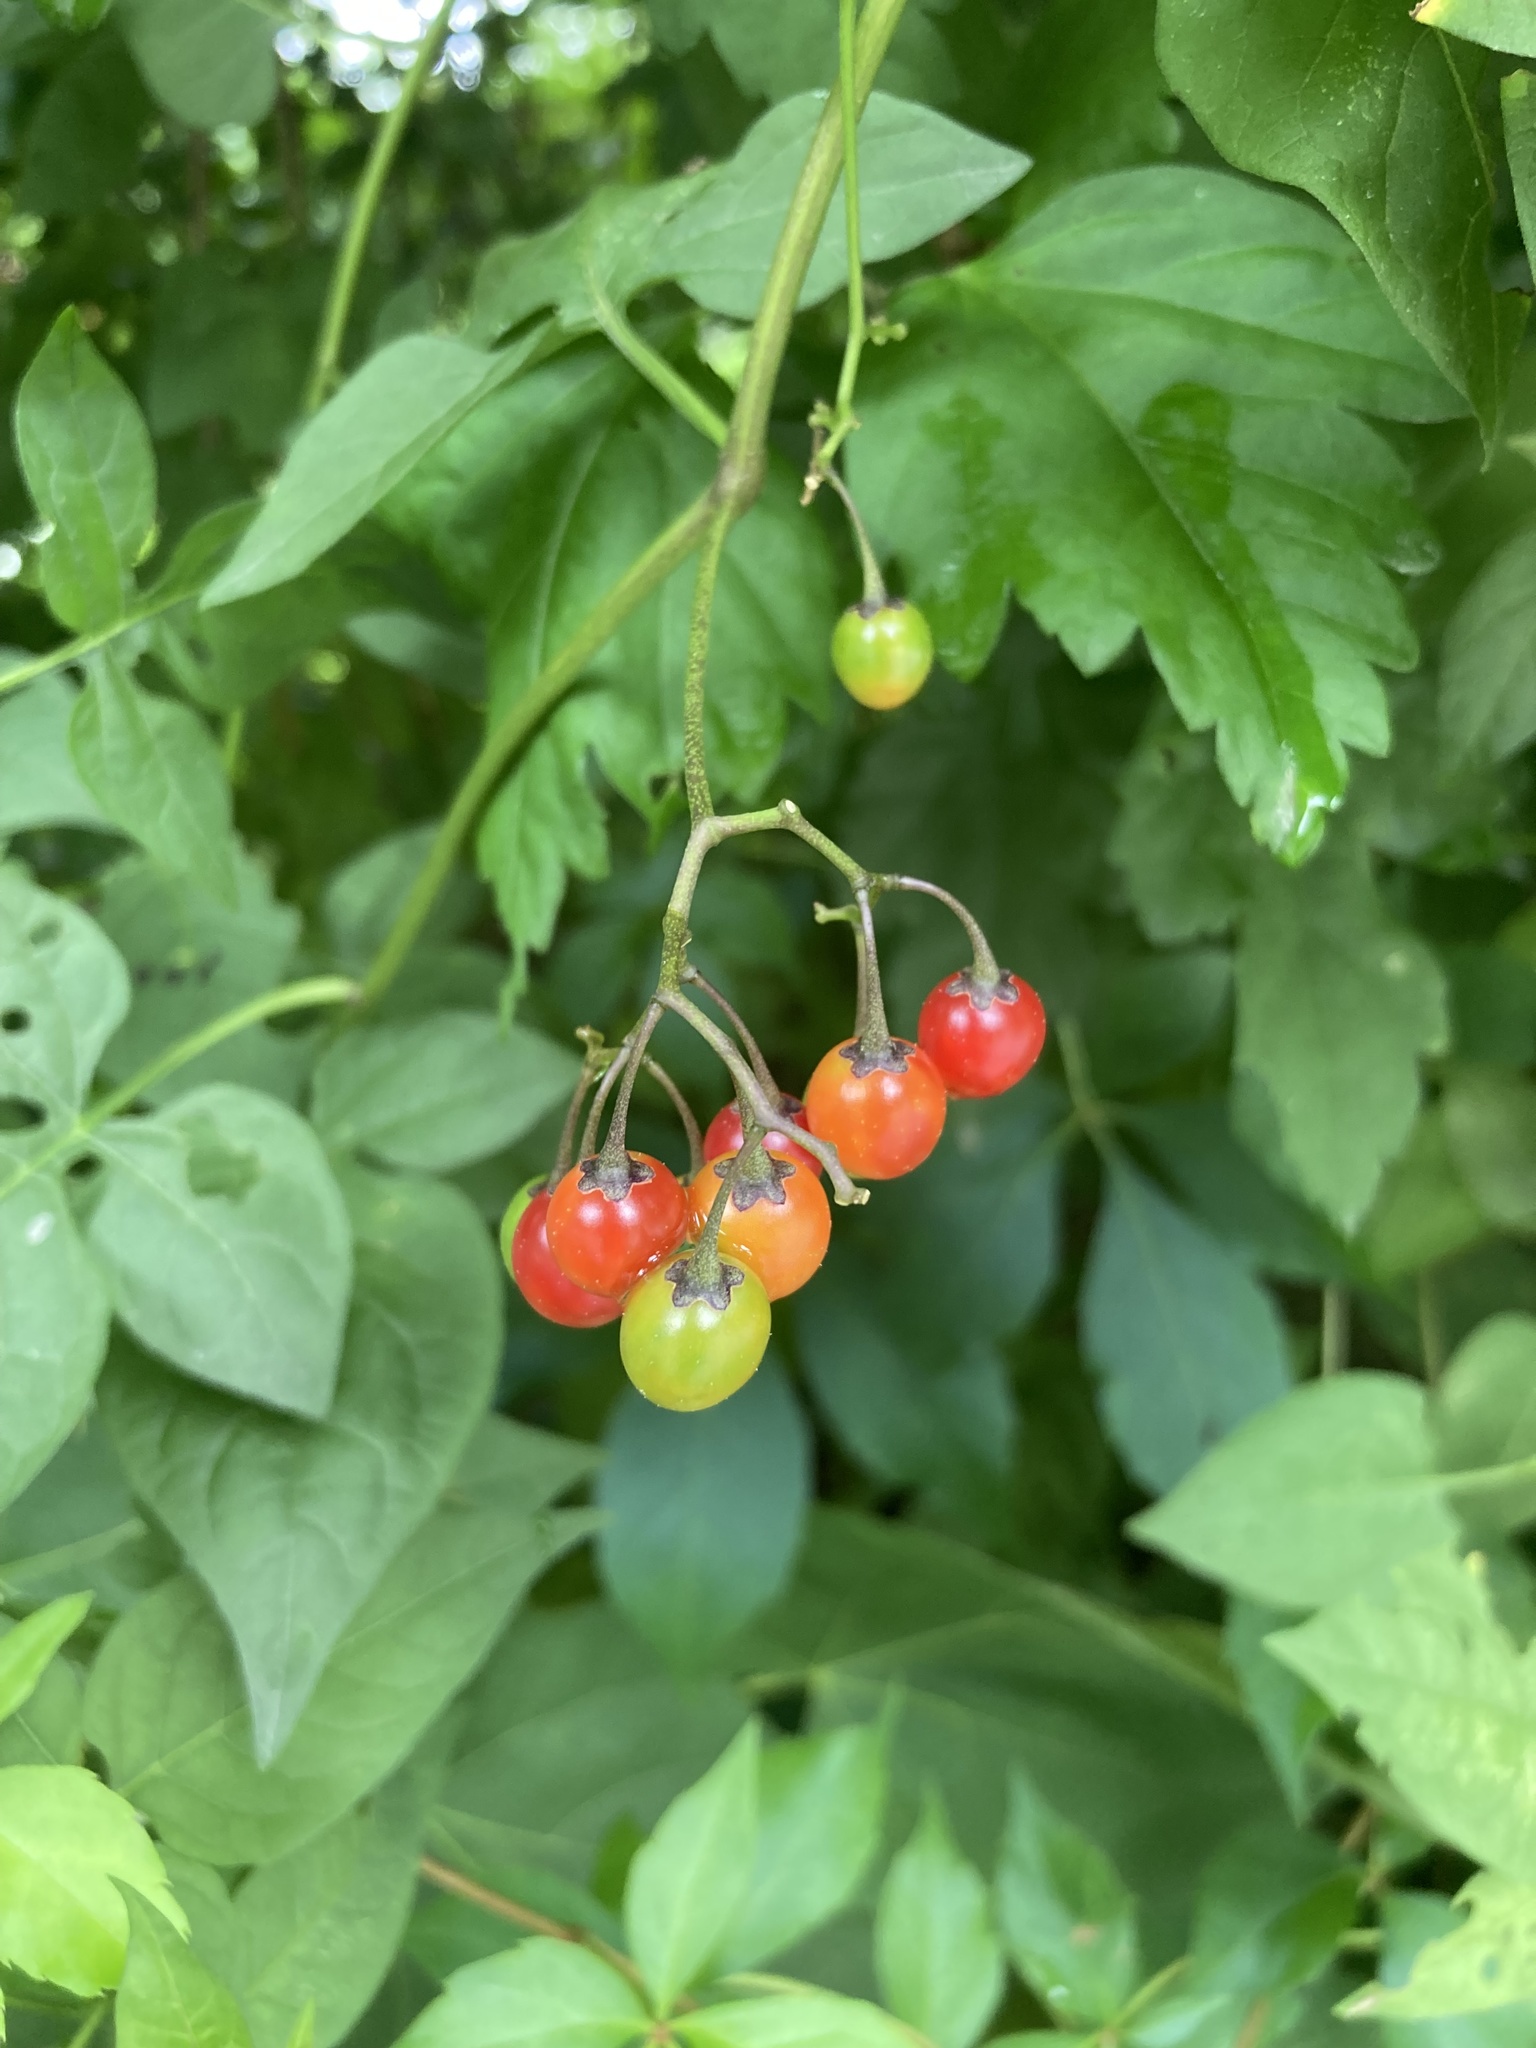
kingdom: Plantae
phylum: Tracheophyta
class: Magnoliopsida
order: Solanales
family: Solanaceae
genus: Solanum
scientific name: Solanum dulcamara
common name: Climbing nightshade
